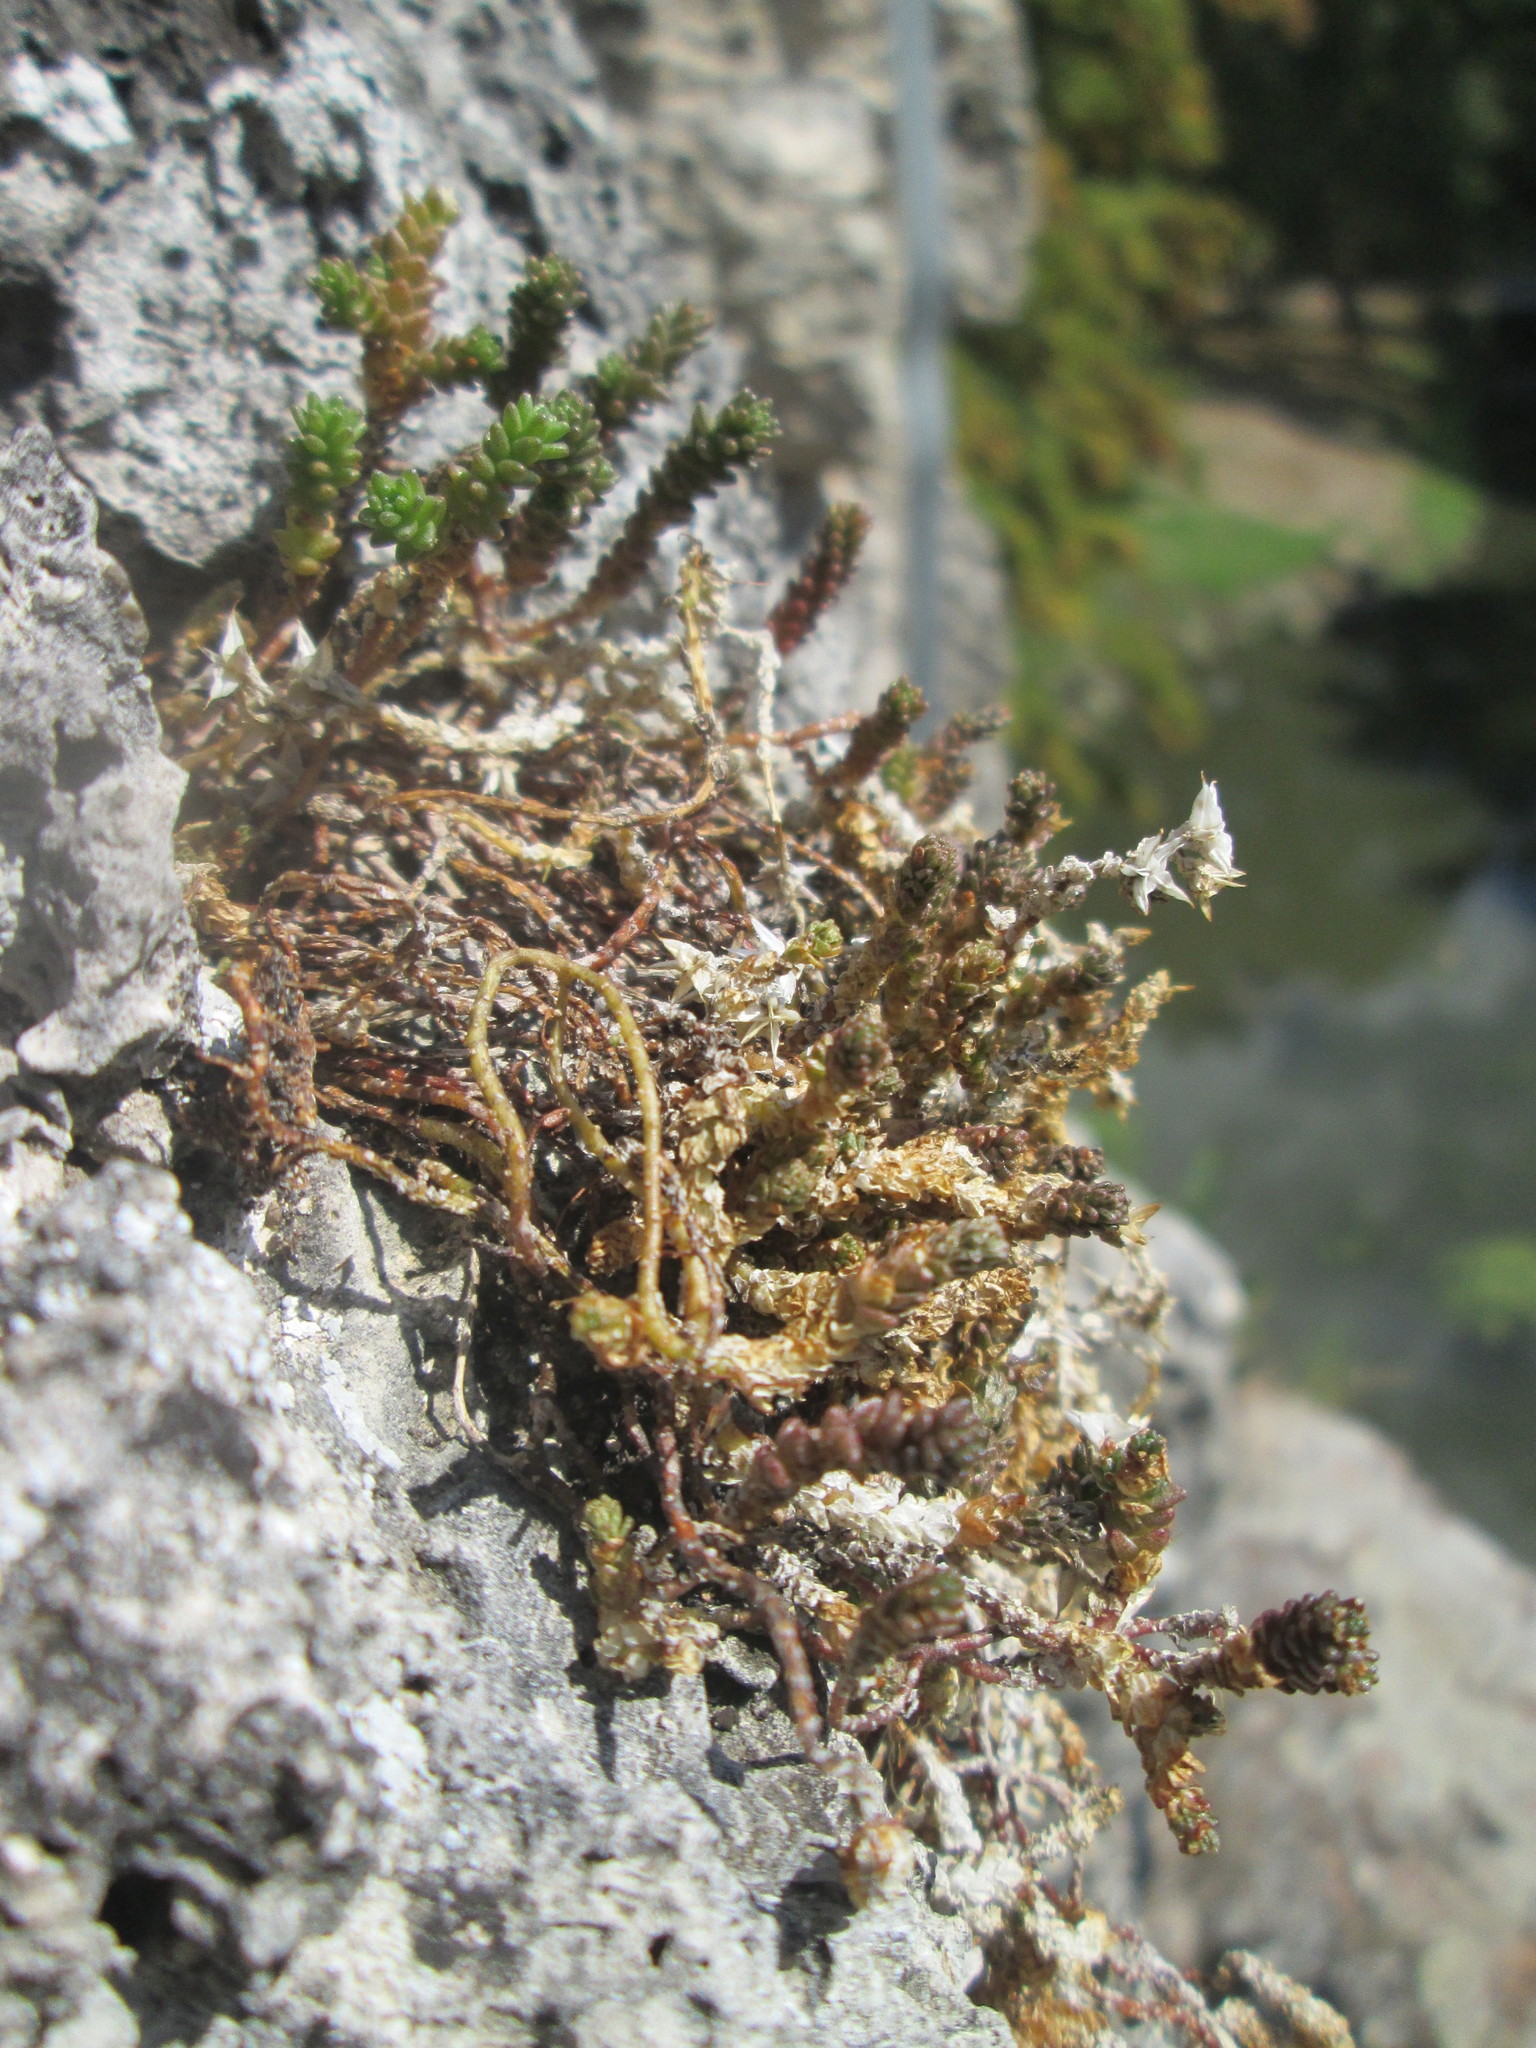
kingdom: Plantae
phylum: Tracheophyta
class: Magnoliopsida
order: Saxifragales
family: Crassulaceae
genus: Sedum
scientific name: Sedum acre
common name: Biting stonecrop
